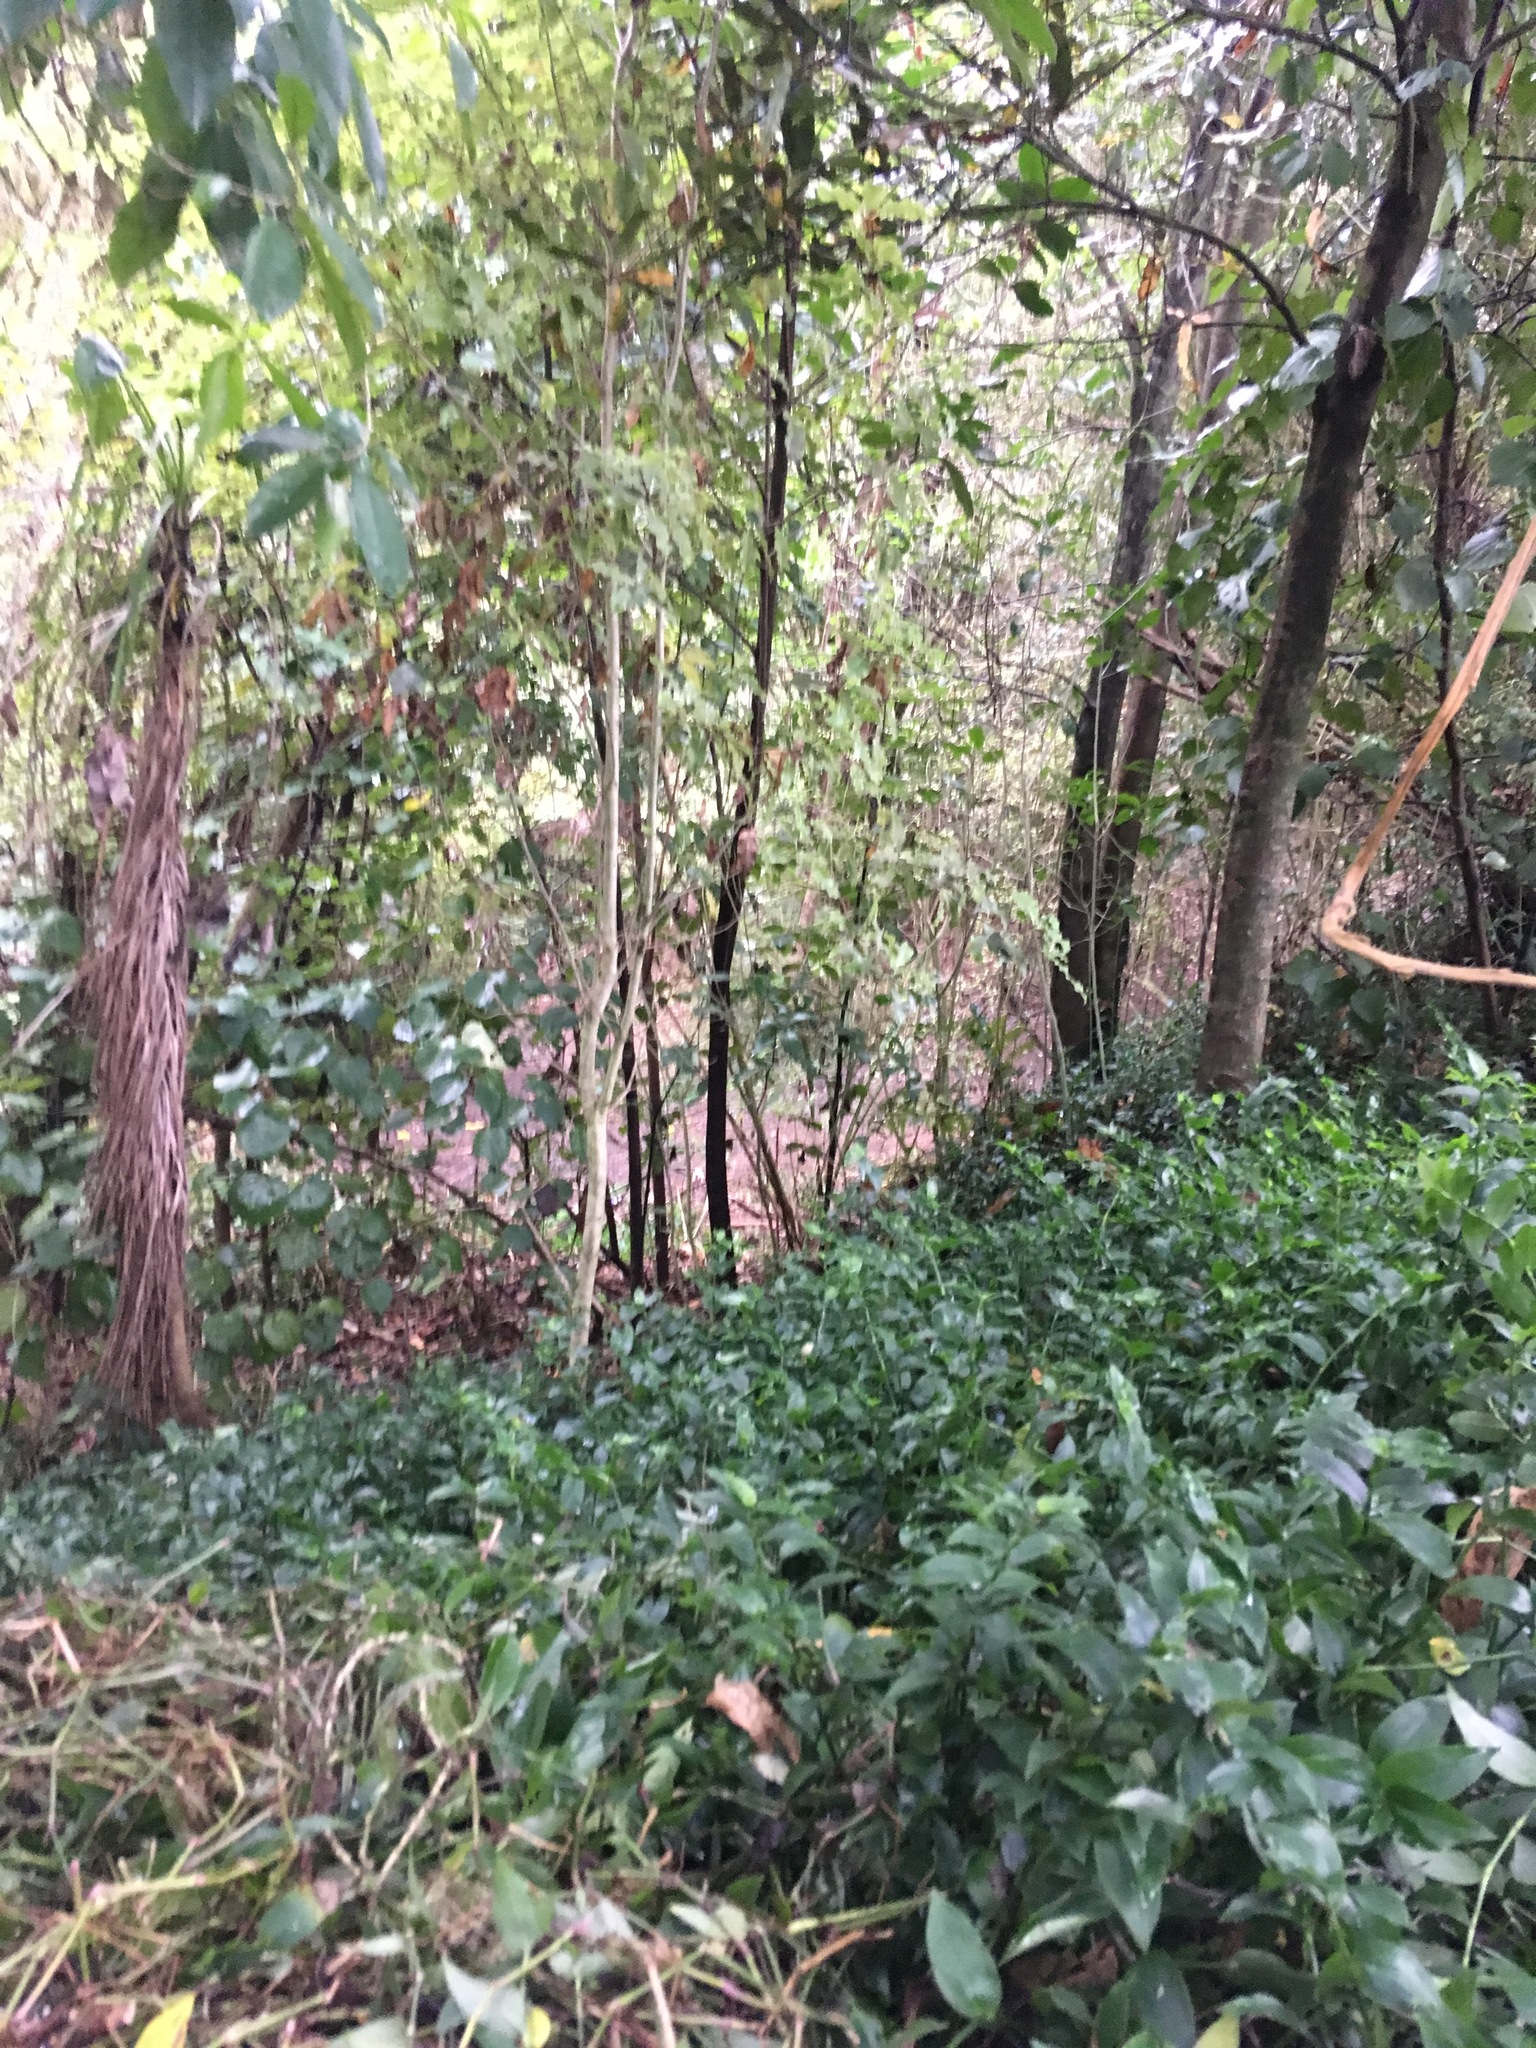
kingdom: Plantae
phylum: Tracheophyta
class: Liliopsida
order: Commelinales
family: Commelinaceae
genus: Tradescantia
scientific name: Tradescantia fluminensis
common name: Wandering-jew
